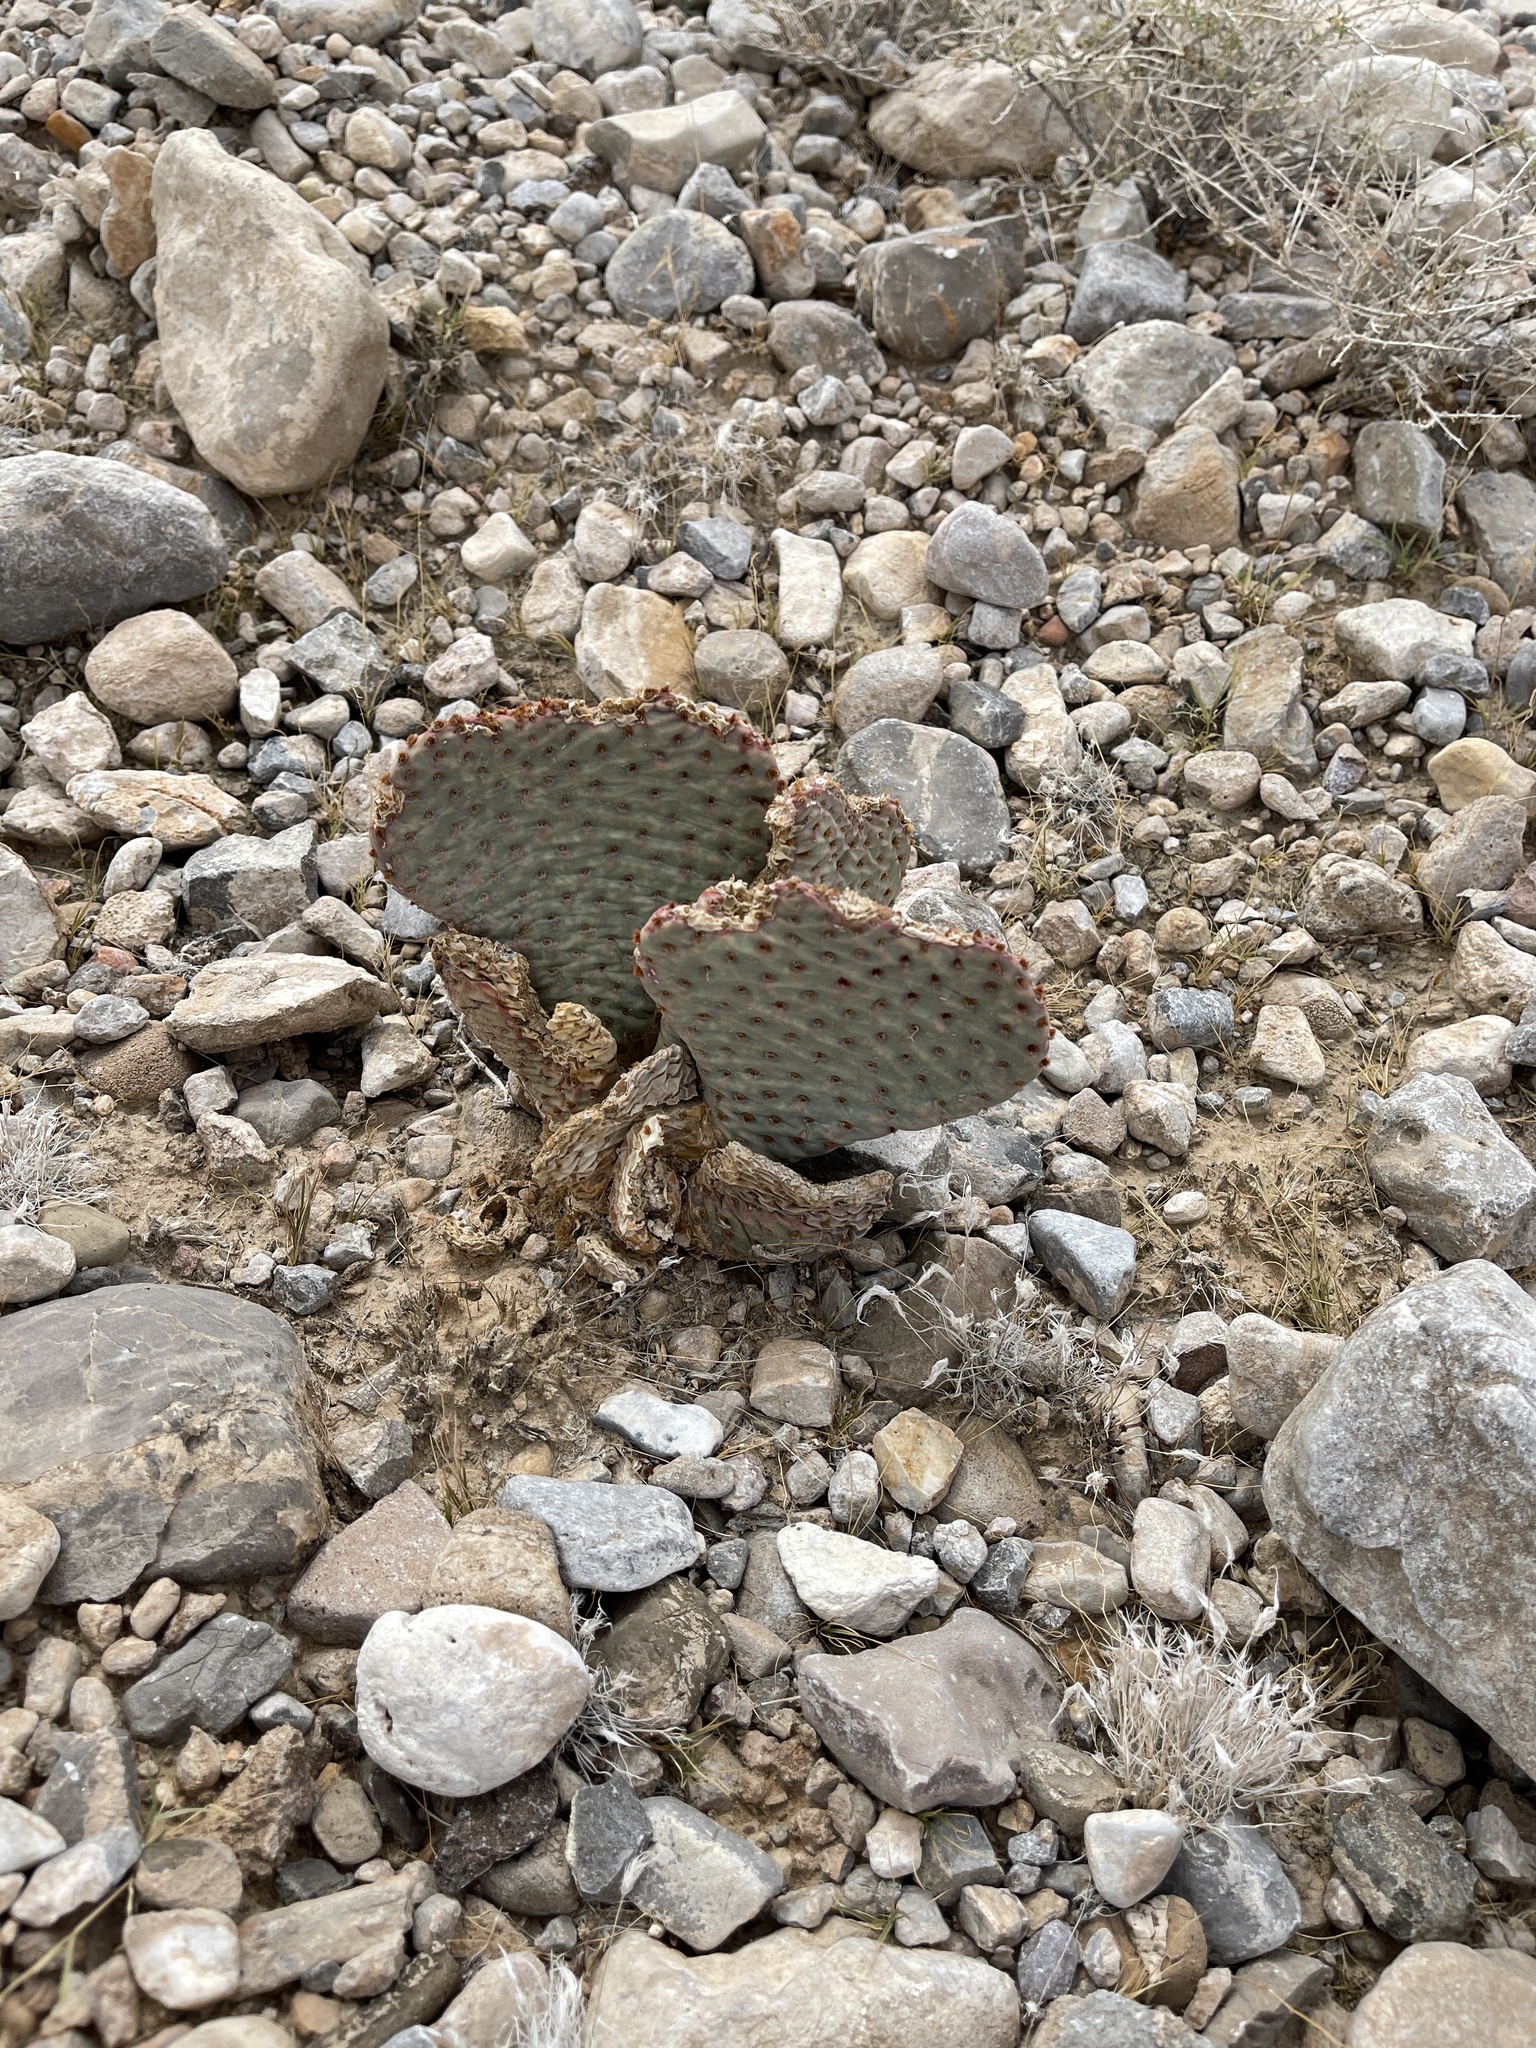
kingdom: Plantae
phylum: Tracheophyta
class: Magnoliopsida
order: Caryophyllales
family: Cactaceae
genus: Opuntia
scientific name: Opuntia basilaris
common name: Beavertail prickly-pear
